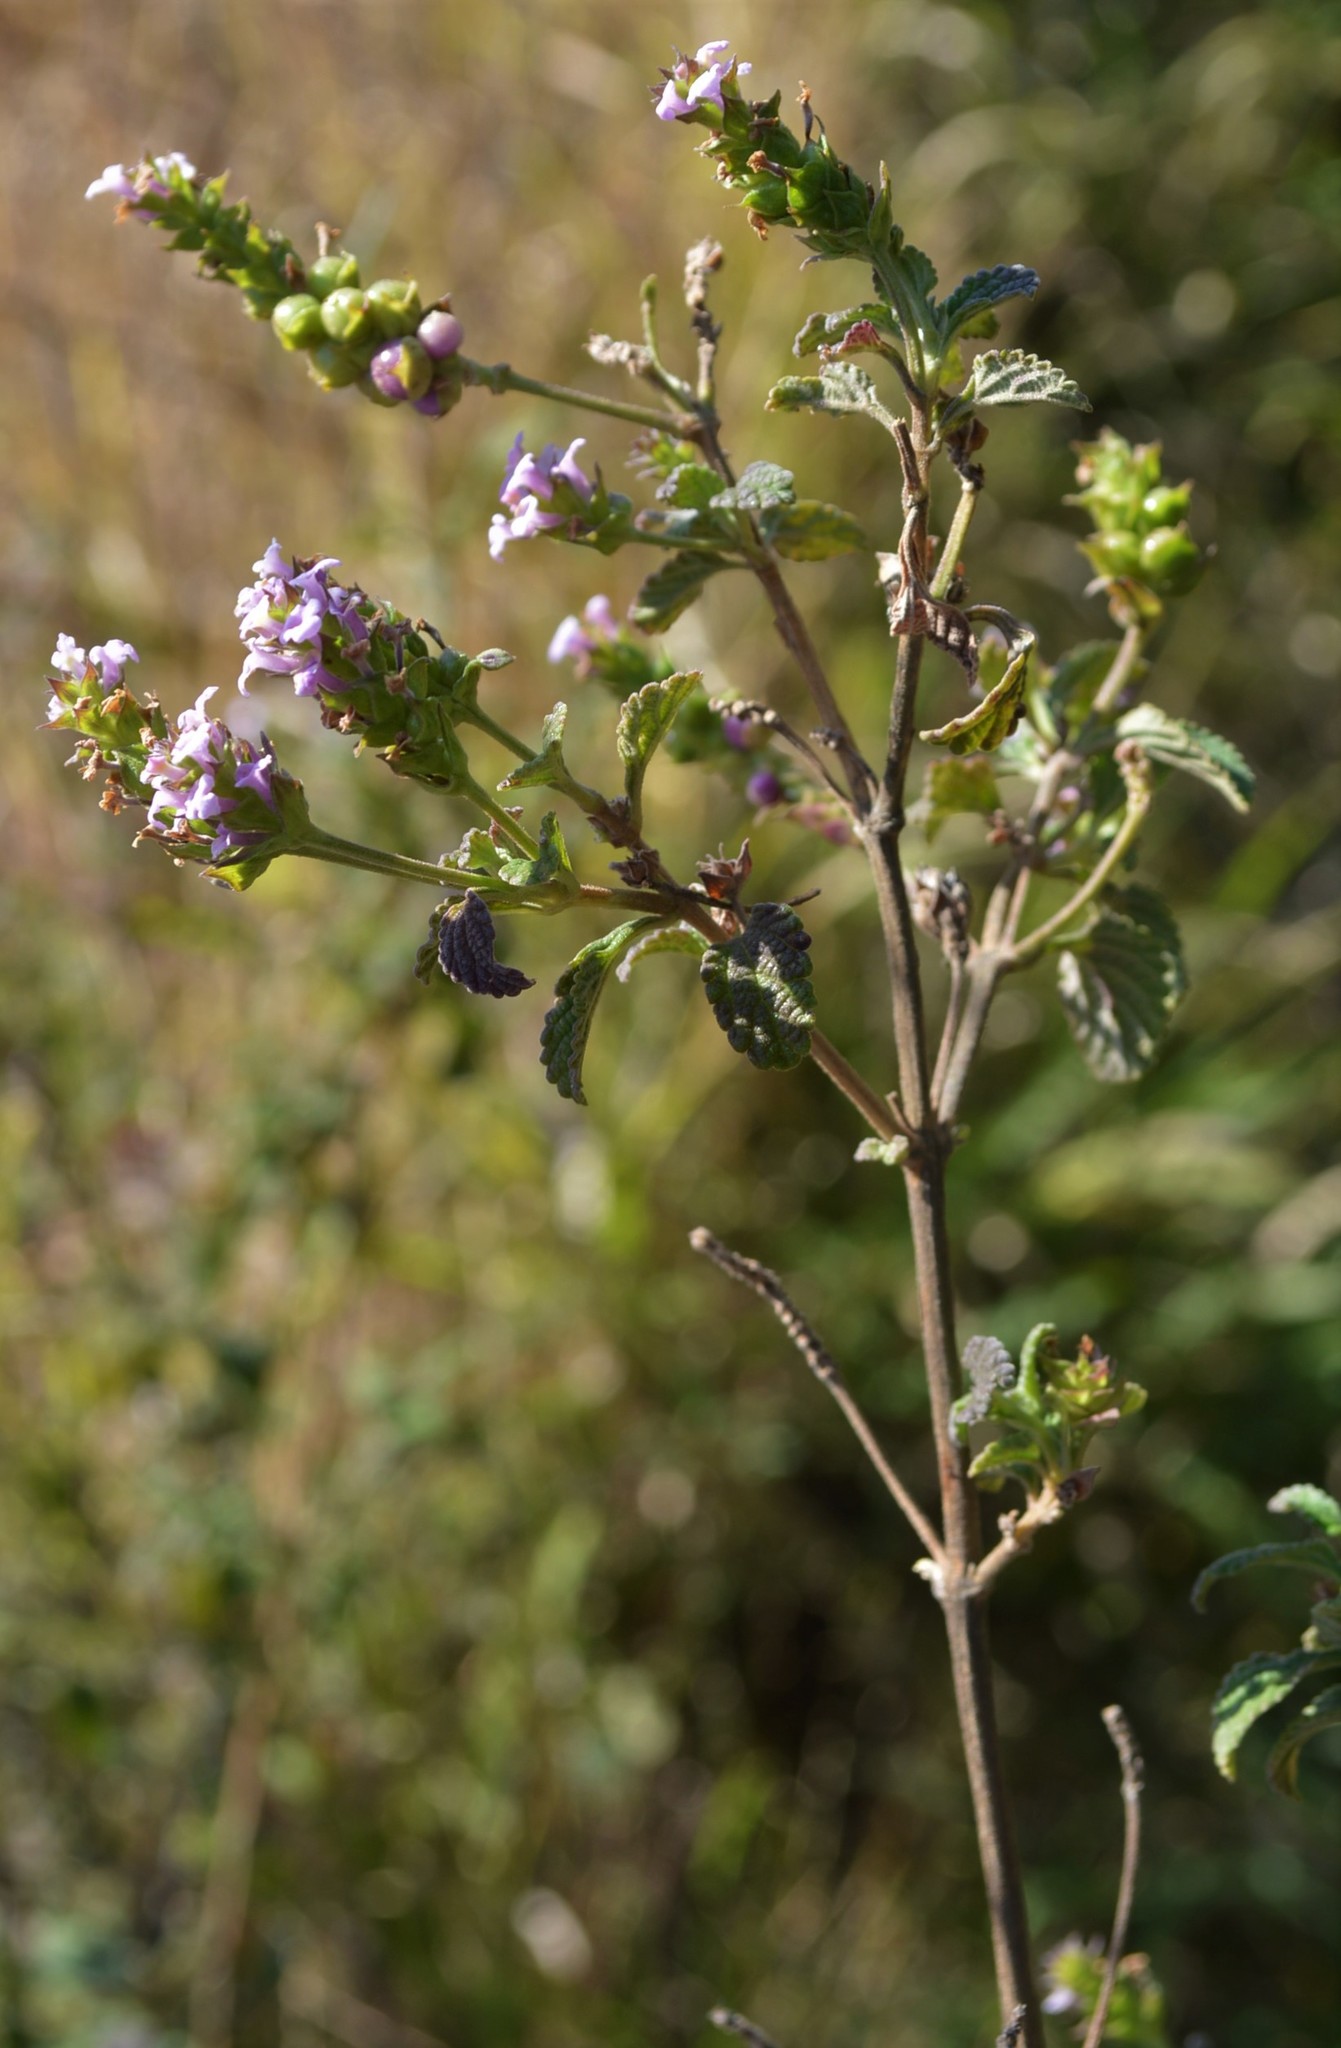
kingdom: Plantae
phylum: Tracheophyta
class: Magnoliopsida
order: Lamiales
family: Verbenaceae
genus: Lantana
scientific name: Lantana rugosa
